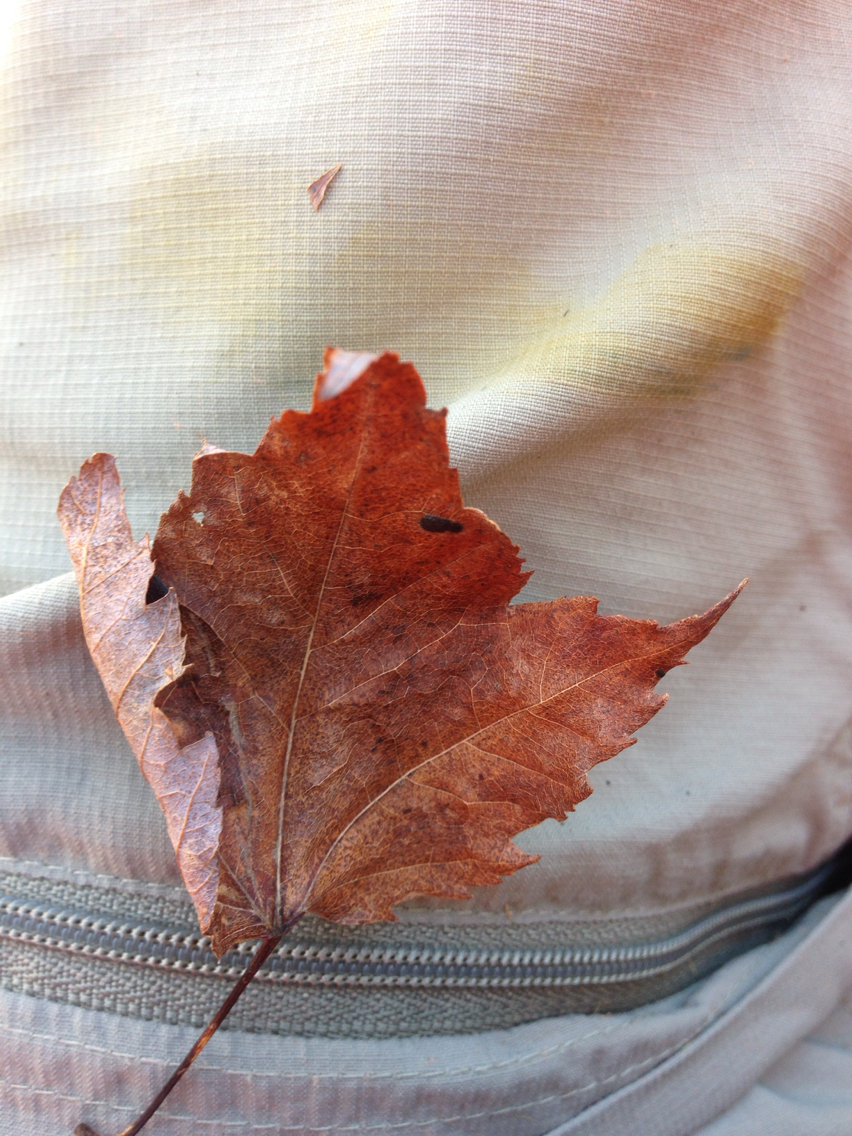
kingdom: Plantae
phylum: Tracheophyta
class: Magnoliopsida
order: Sapindales
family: Sapindaceae
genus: Acer
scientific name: Acer rubrum
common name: Red maple
